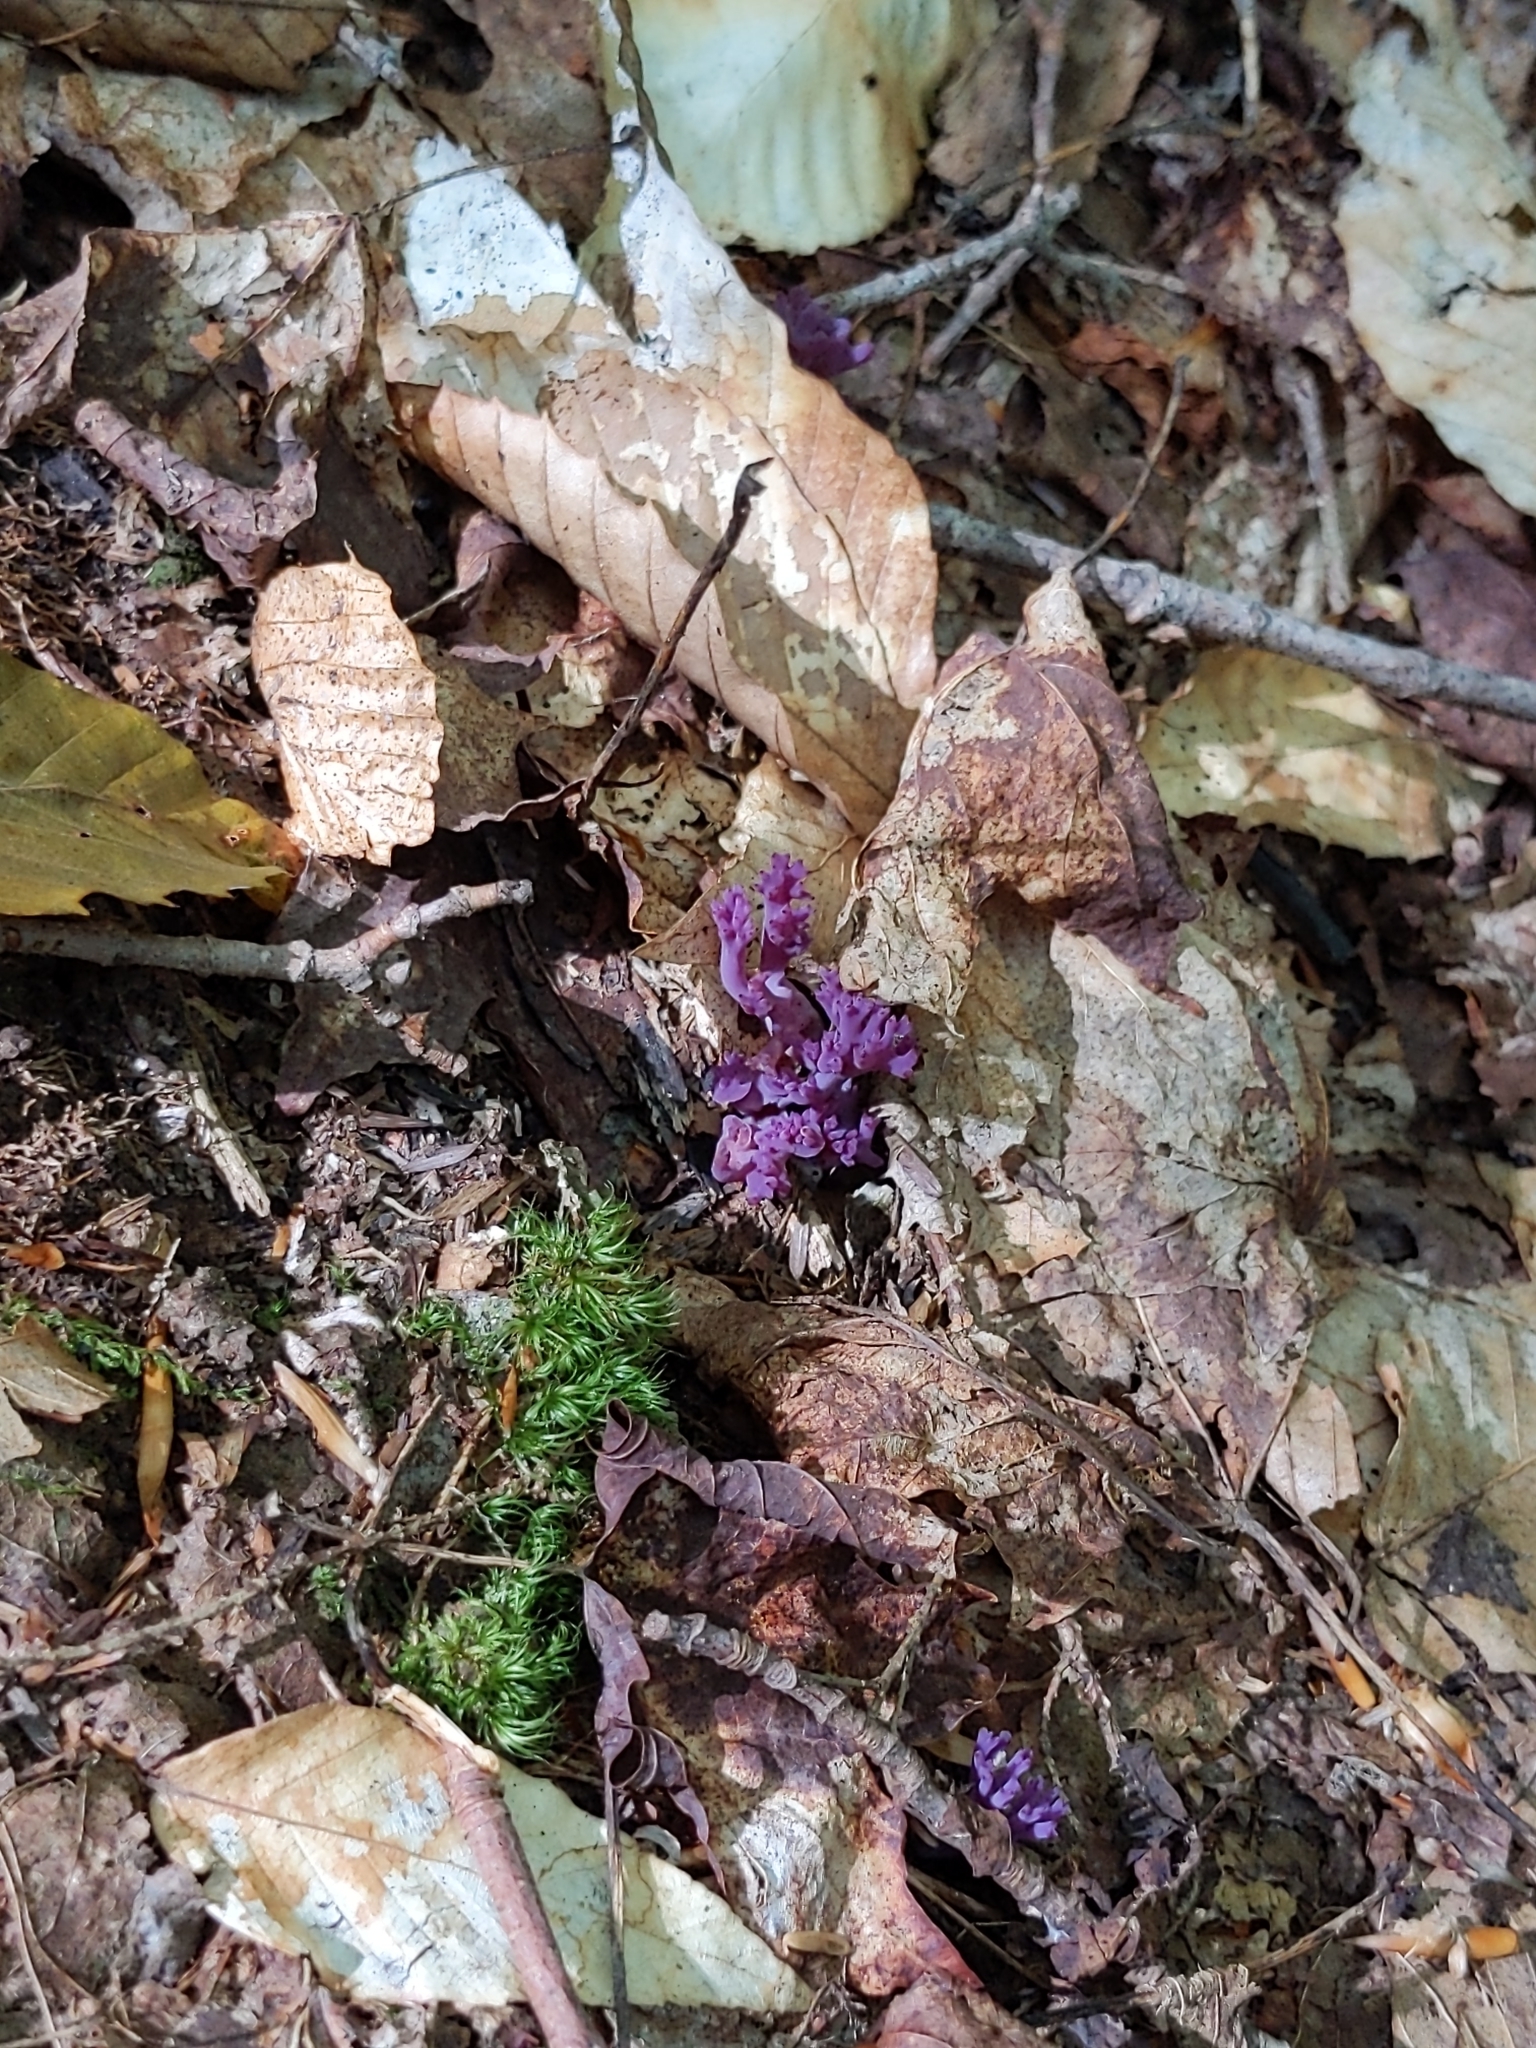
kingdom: Fungi
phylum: Basidiomycota
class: Agaricomycetes
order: Agaricales
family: Clavariaceae
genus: Clavaria
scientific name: Clavaria zollingeri
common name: Violet coral
